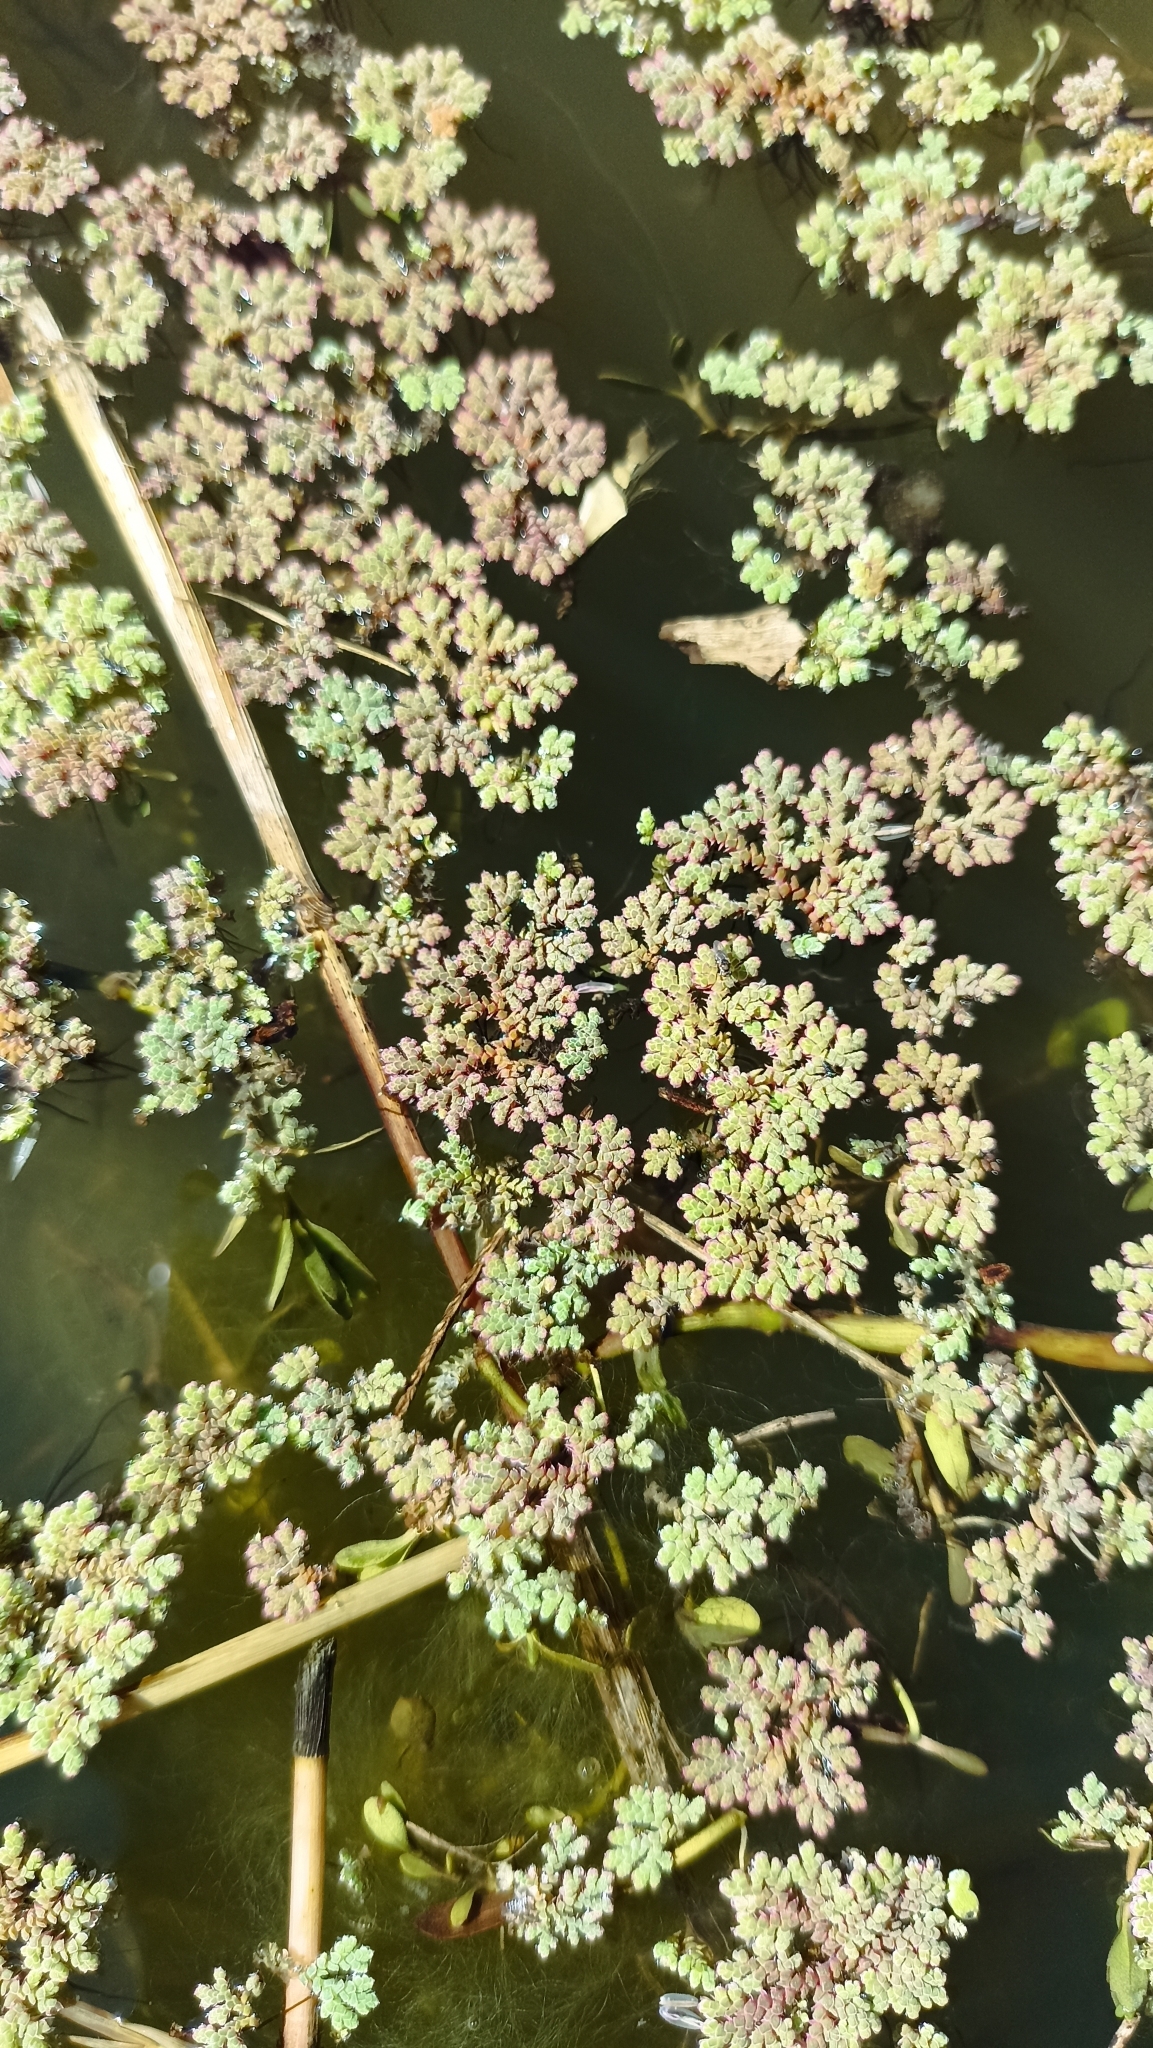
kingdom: Plantae
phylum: Tracheophyta
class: Polypodiopsida
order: Salviniales
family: Salviniaceae
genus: Azolla
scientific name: Azolla filiculoides
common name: Water fern
